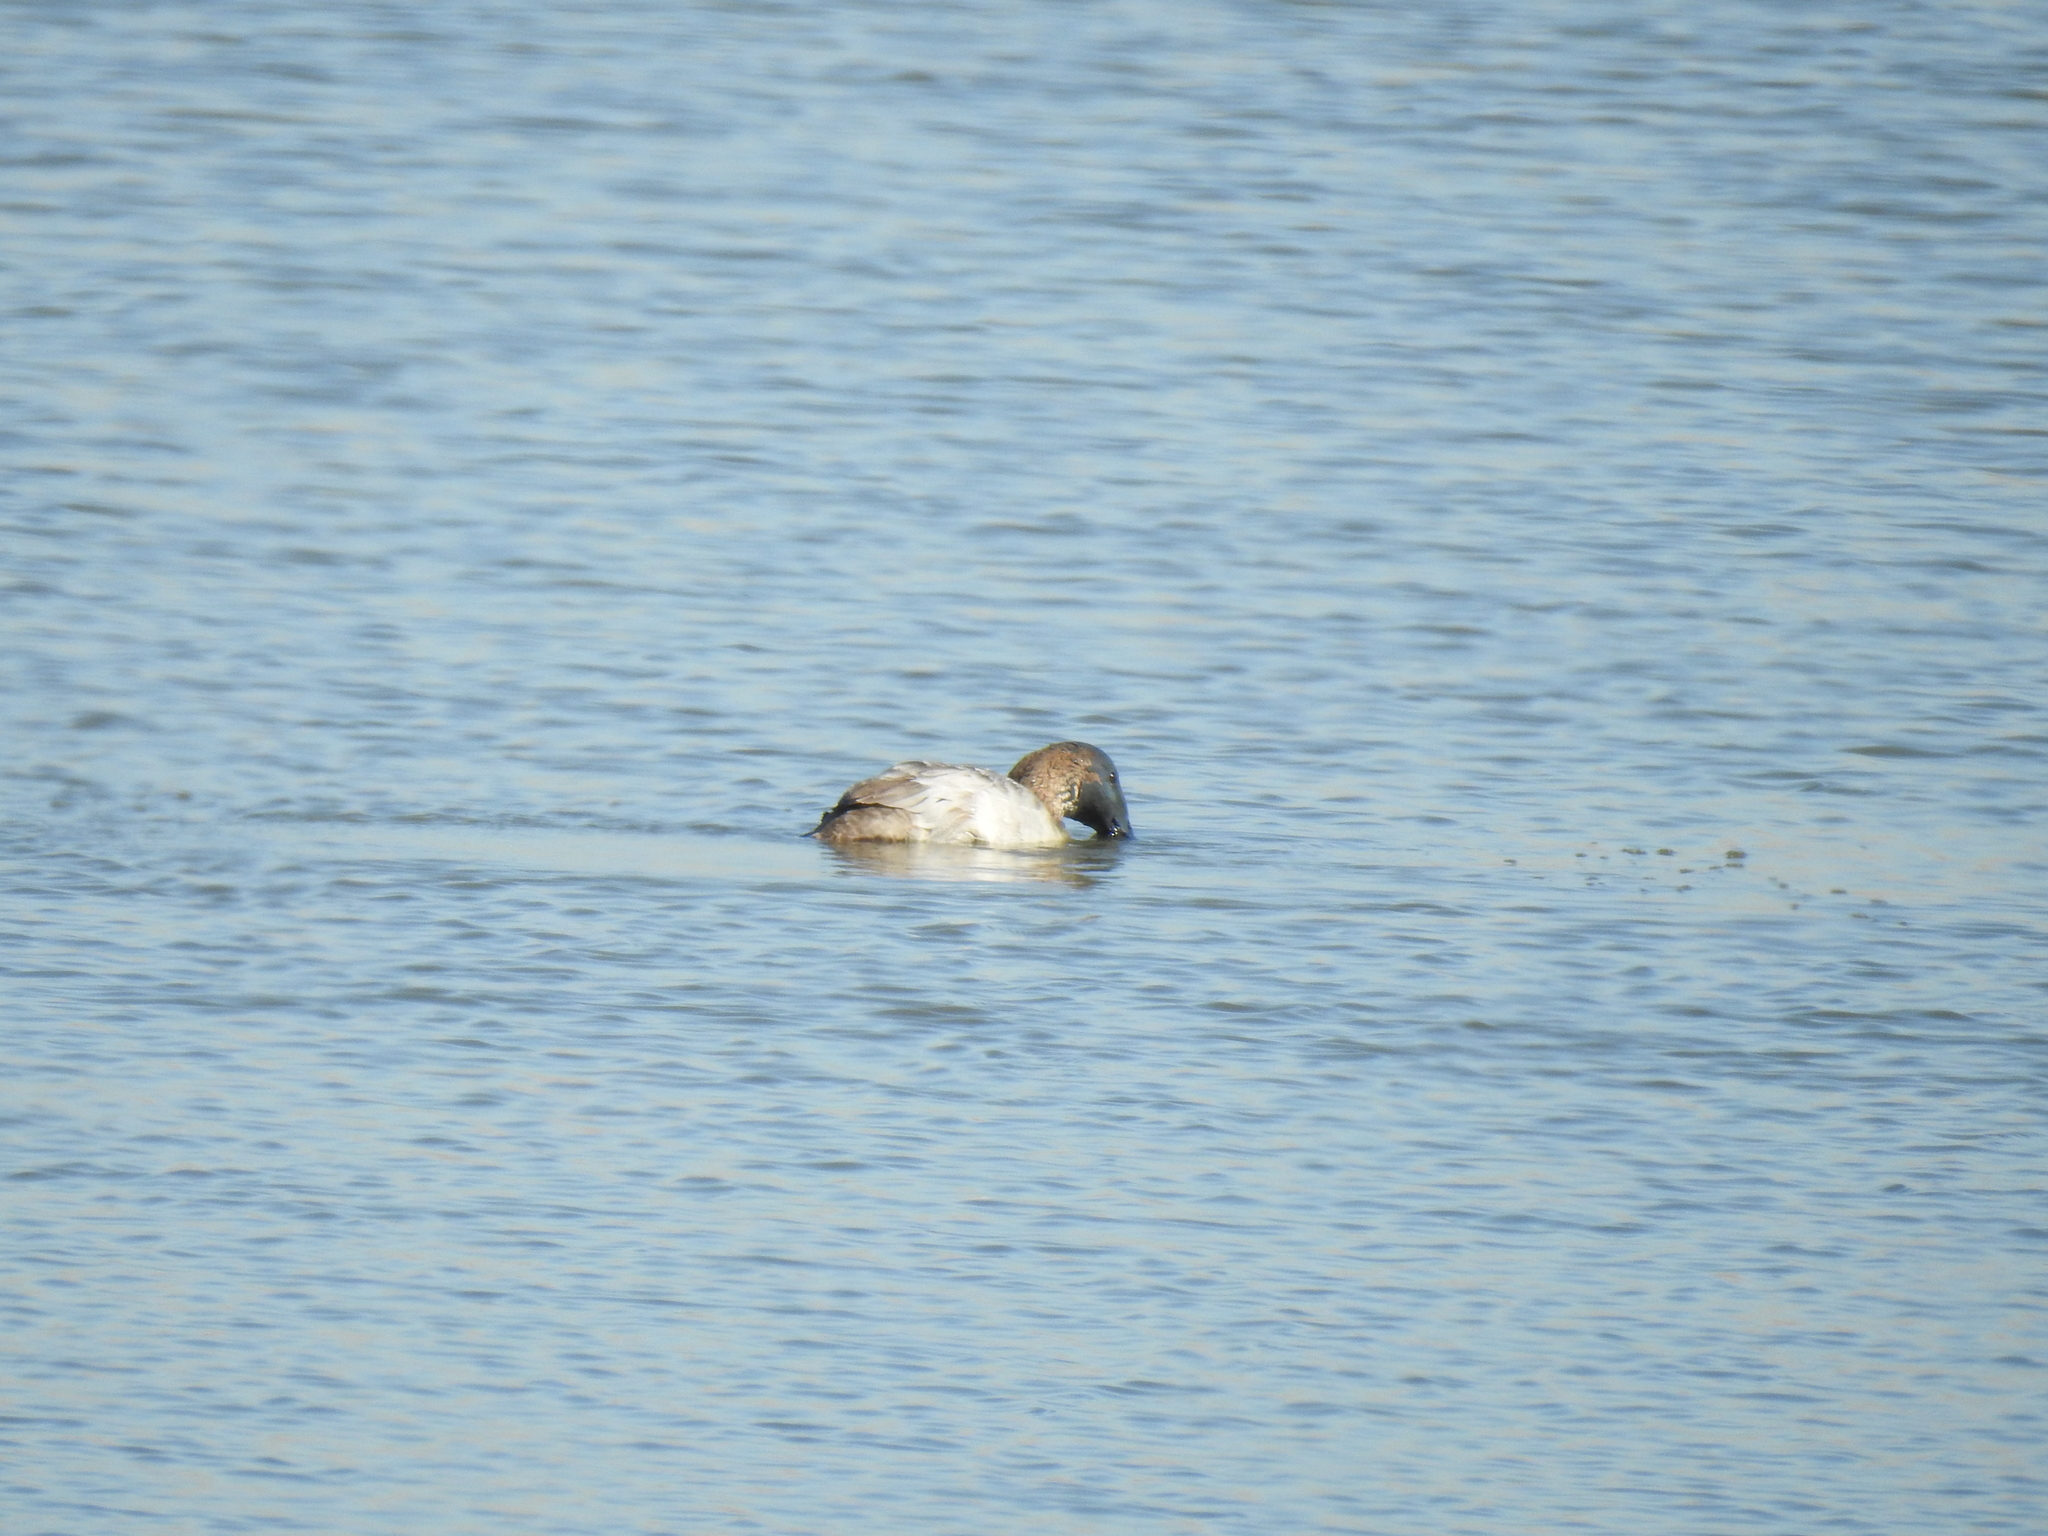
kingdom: Animalia
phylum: Chordata
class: Aves
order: Anseriformes
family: Anatidae
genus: Aythya
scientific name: Aythya valisineria
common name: Canvasback
